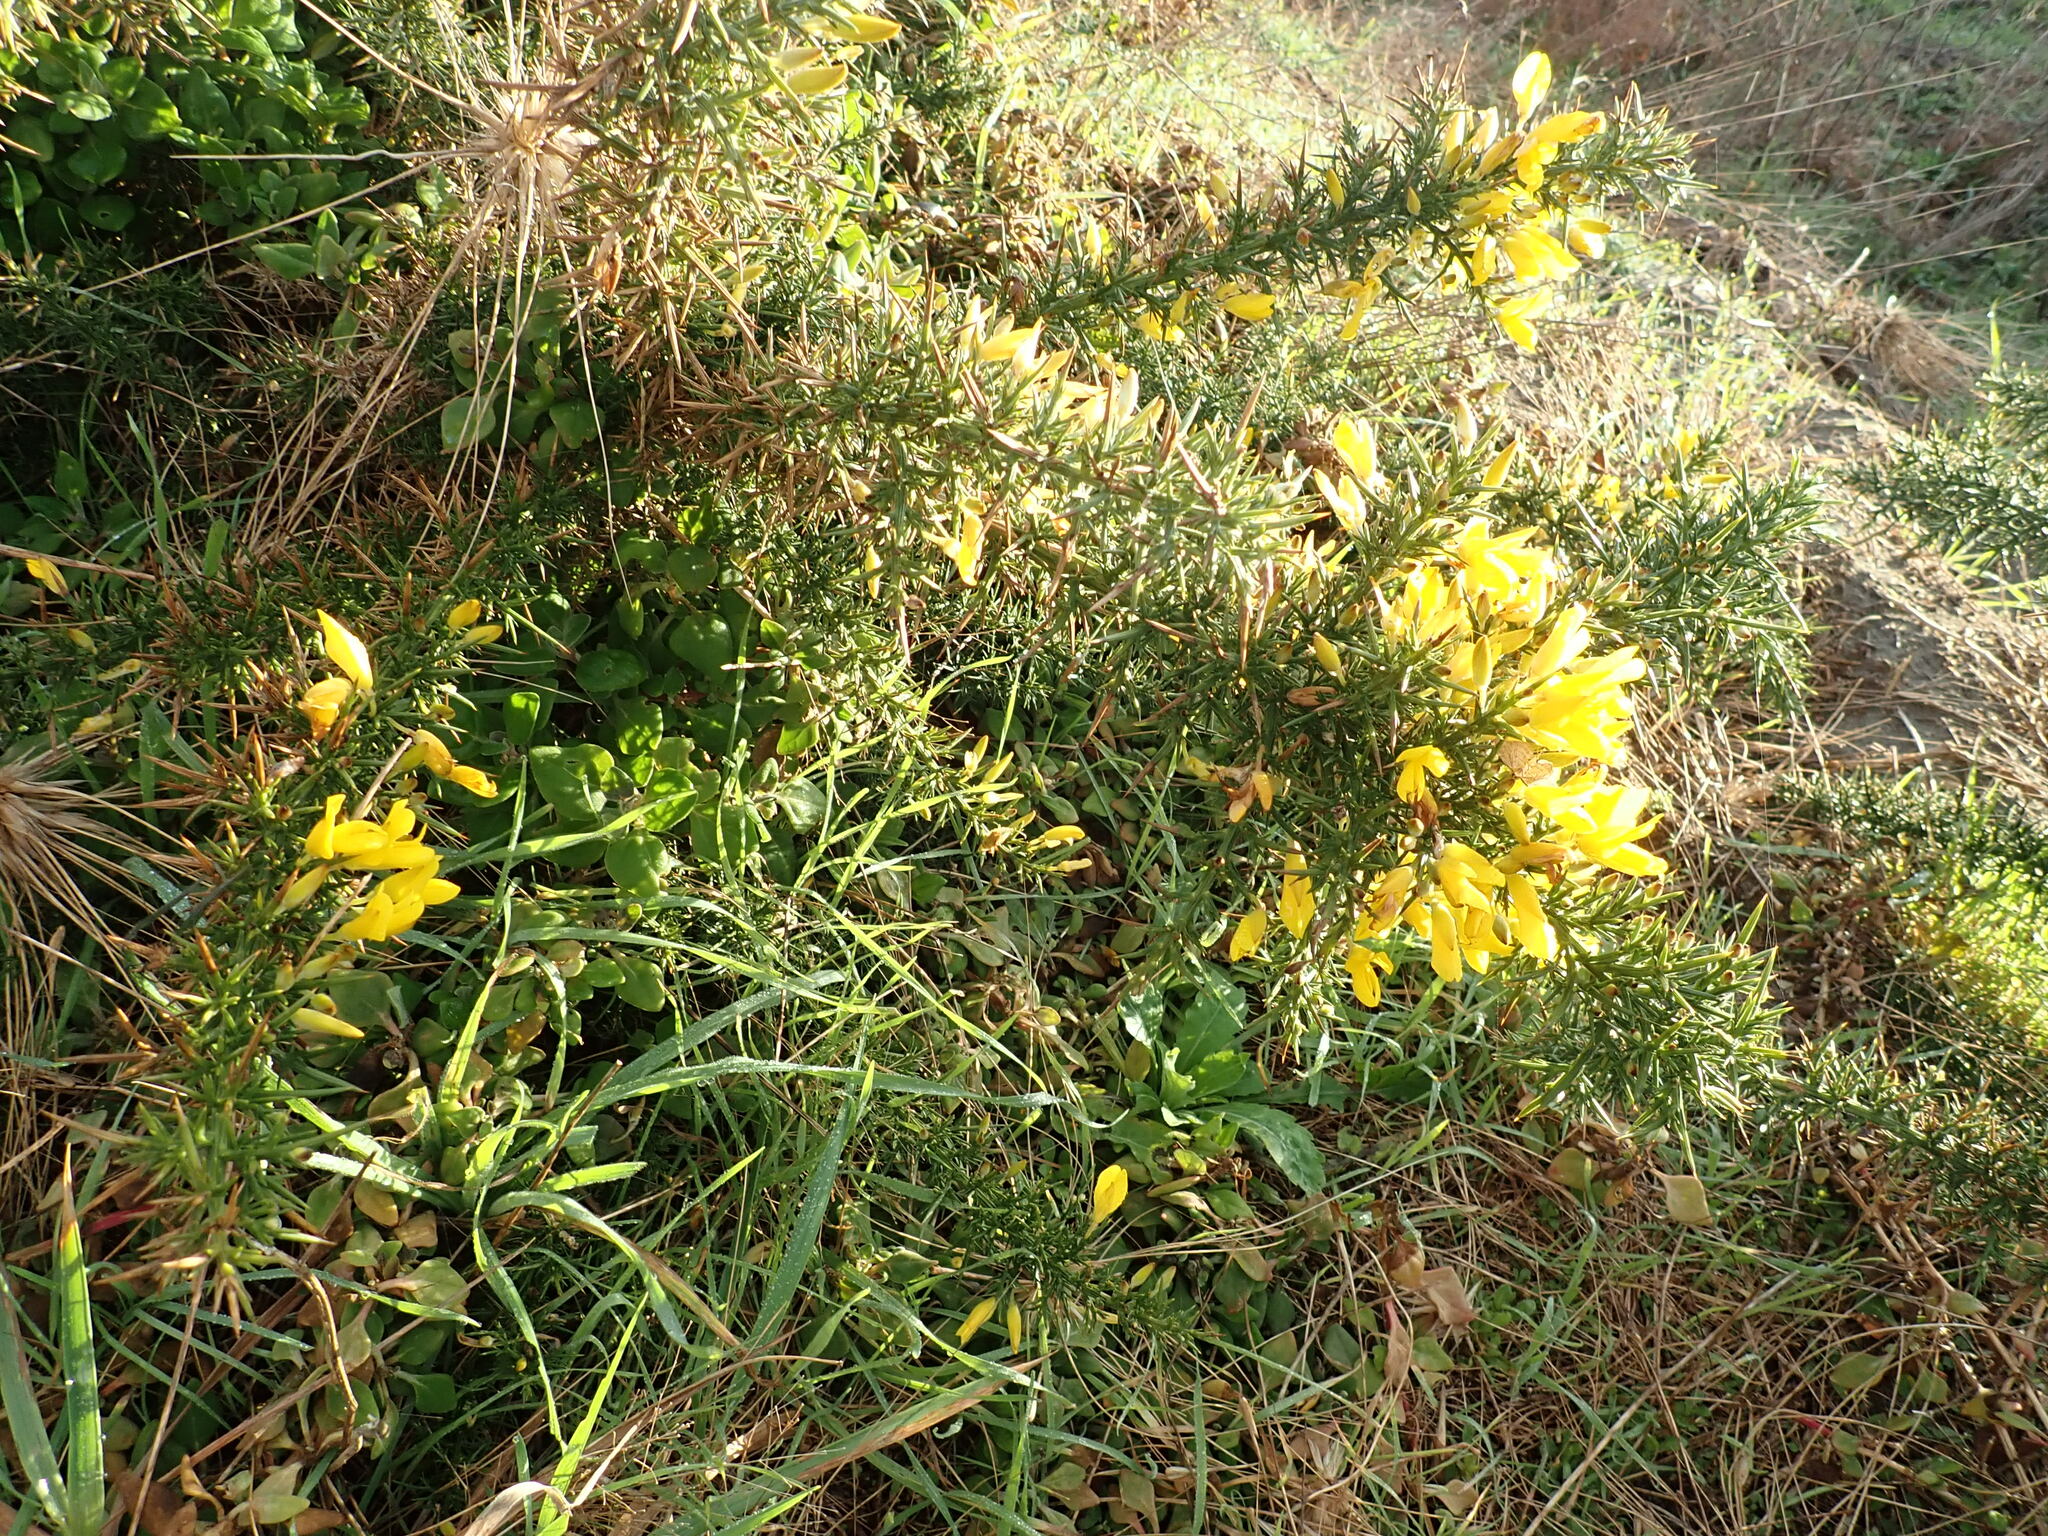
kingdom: Plantae
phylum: Tracheophyta
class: Magnoliopsida
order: Fabales
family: Fabaceae
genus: Ulex
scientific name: Ulex europaeus
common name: Common gorse
